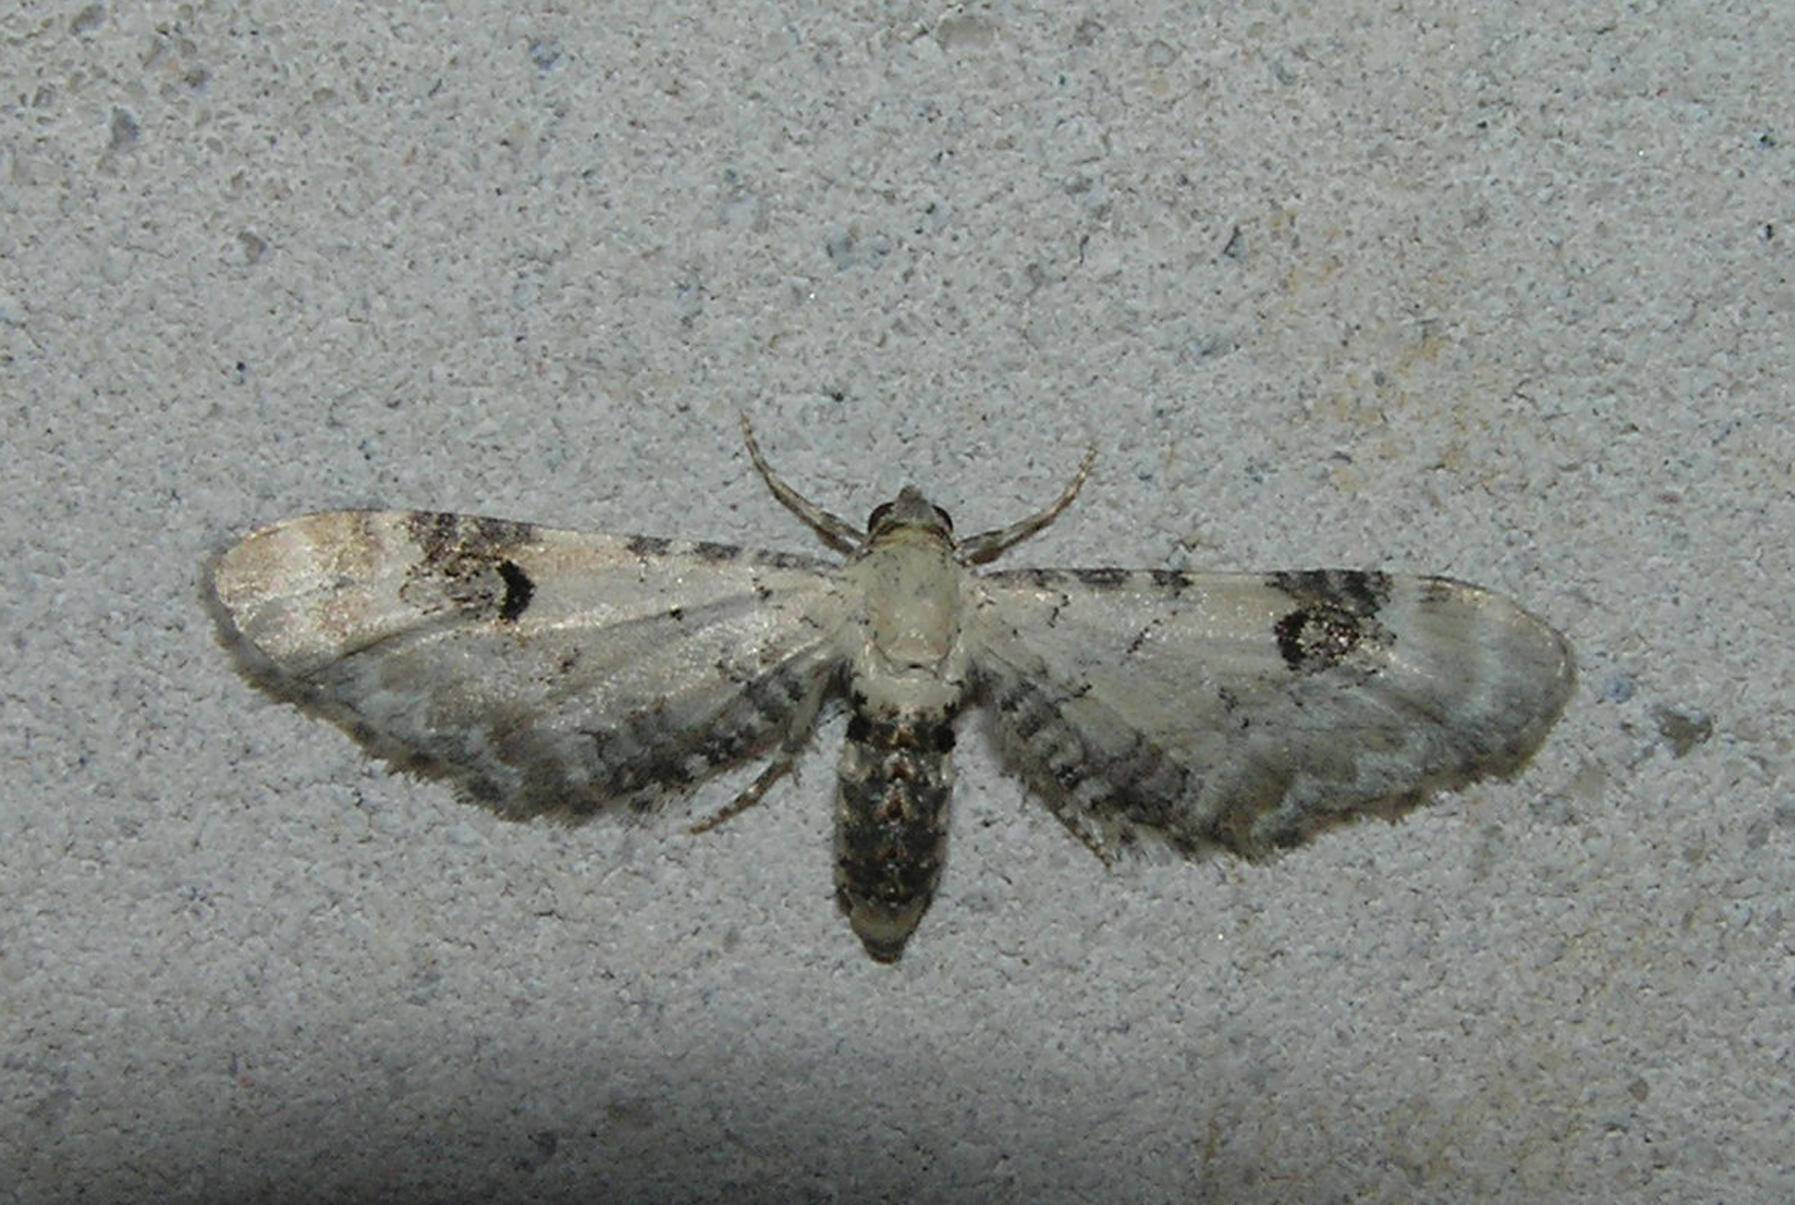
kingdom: Animalia
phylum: Arthropoda
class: Insecta
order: Lepidoptera
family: Geometridae
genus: Eupithecia
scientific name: Eupithecia centaureata
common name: Lime-speck pug
